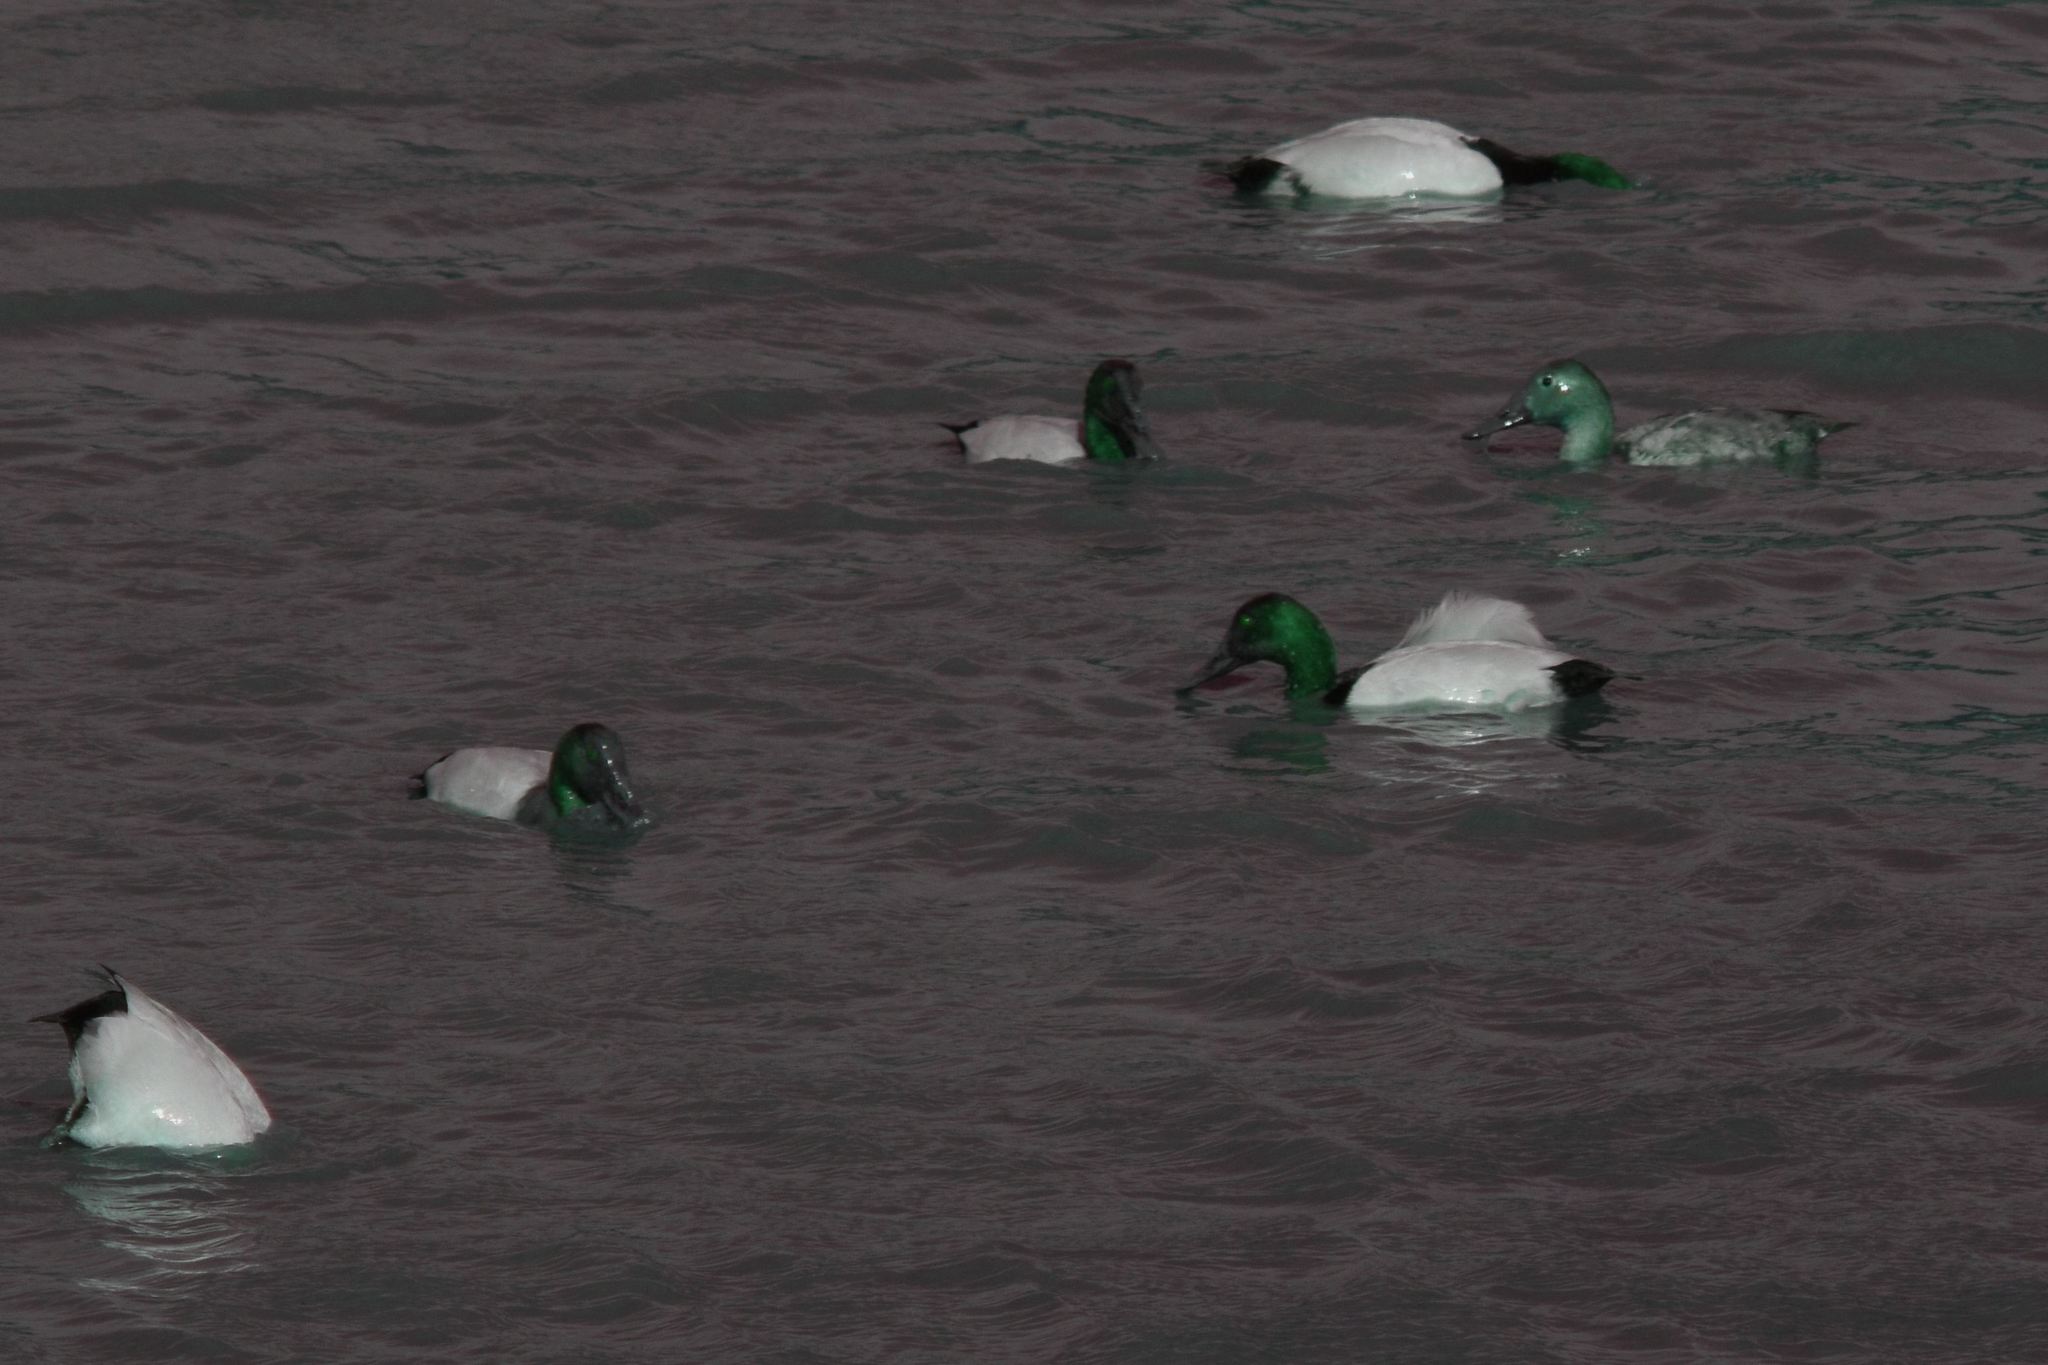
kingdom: Animalia
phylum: Chordata
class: Aves
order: Anseriformes
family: Anatidae
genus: Aythya
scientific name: Aythya valisineria
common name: Canvasback
